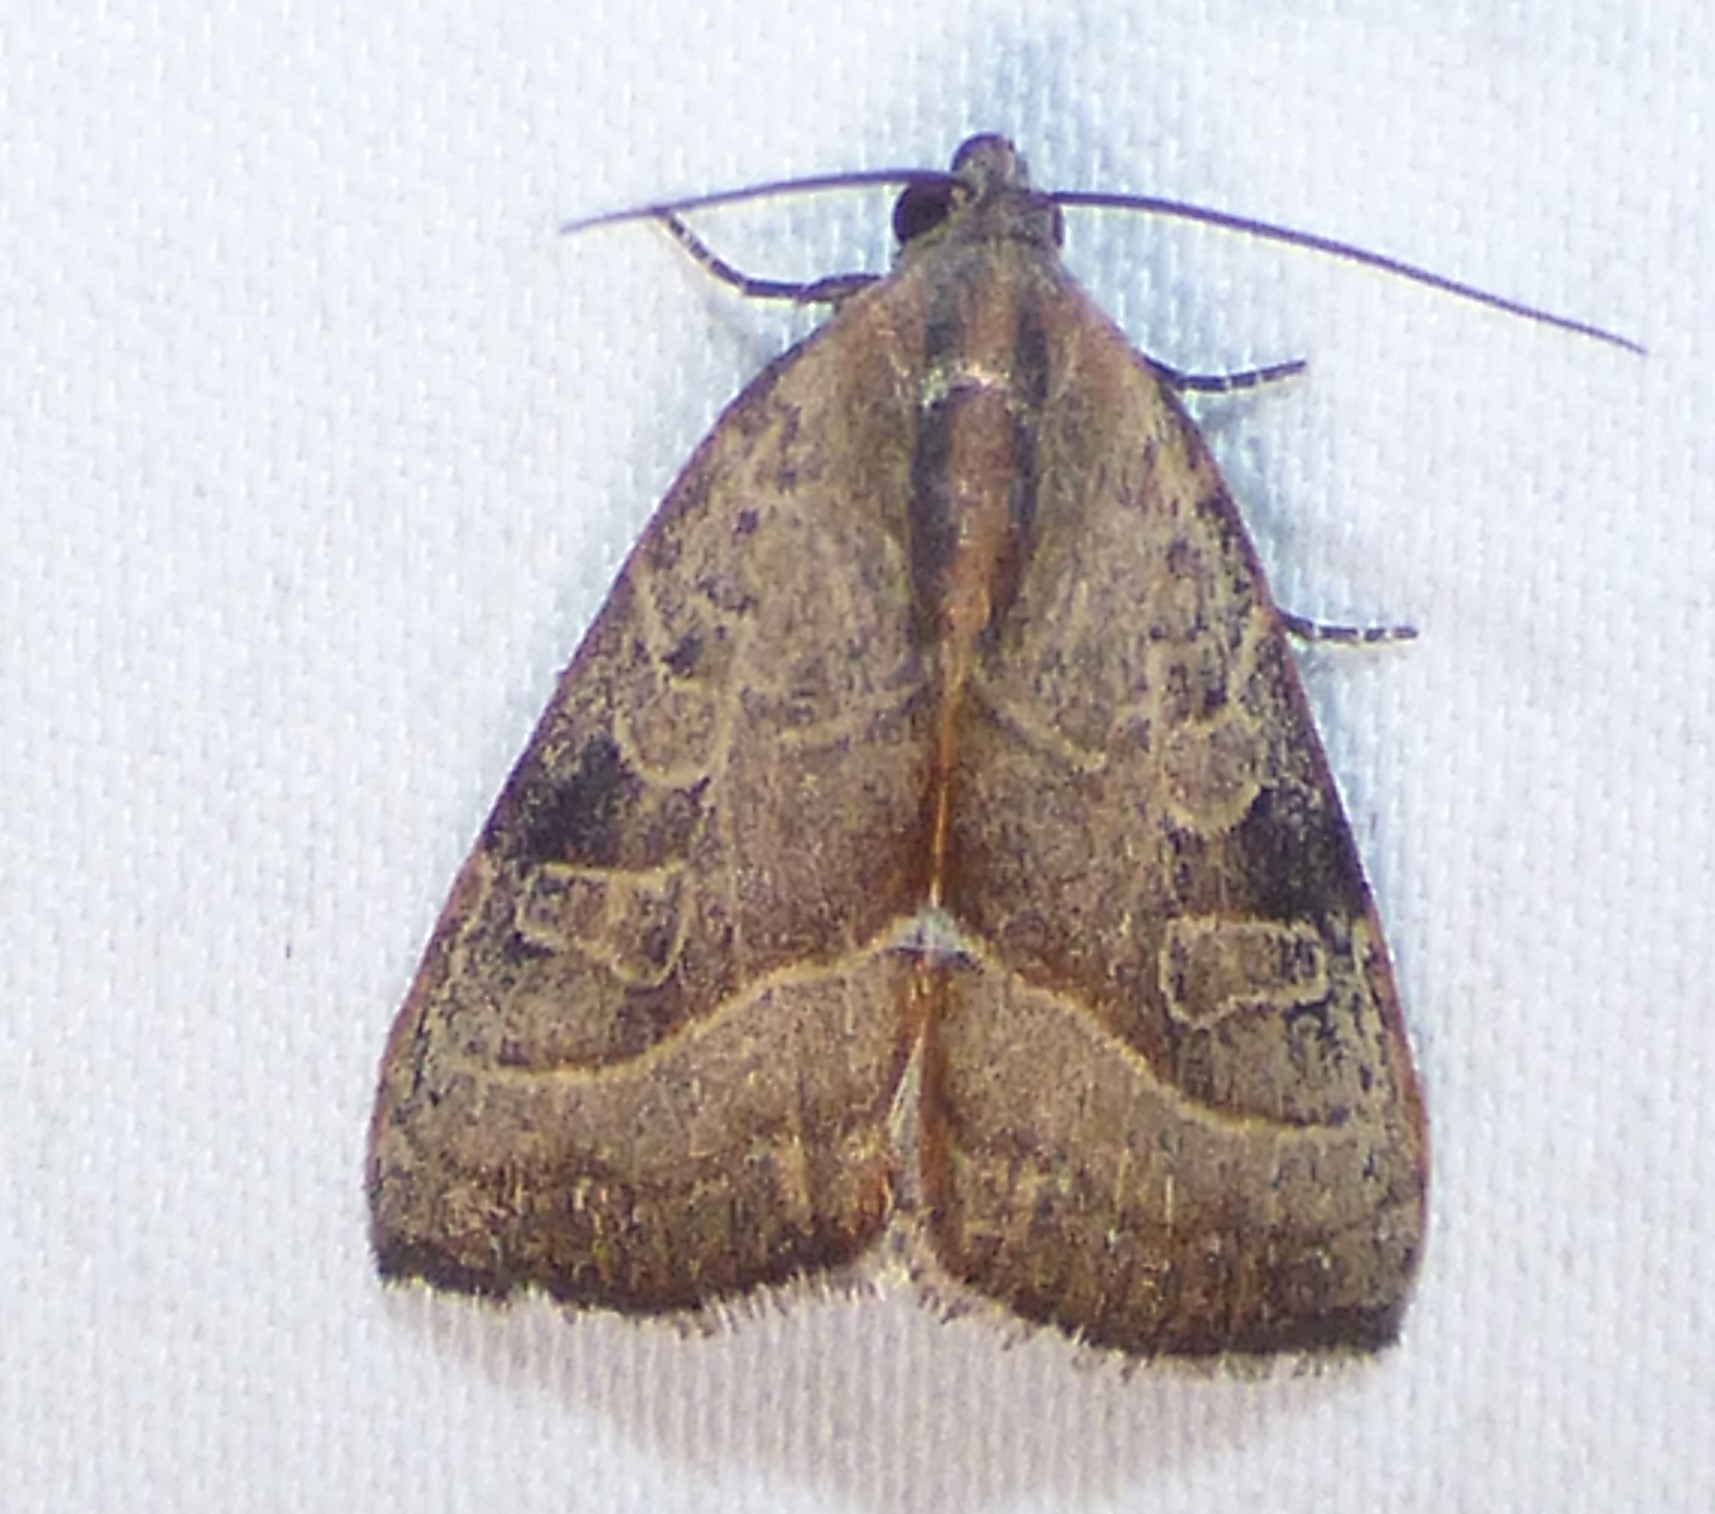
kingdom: Animalia
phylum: Arthropoda
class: Insecta
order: Lepidoptera
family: Noctuidae
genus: Galgula
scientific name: Galgula partita
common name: Wedgeling
